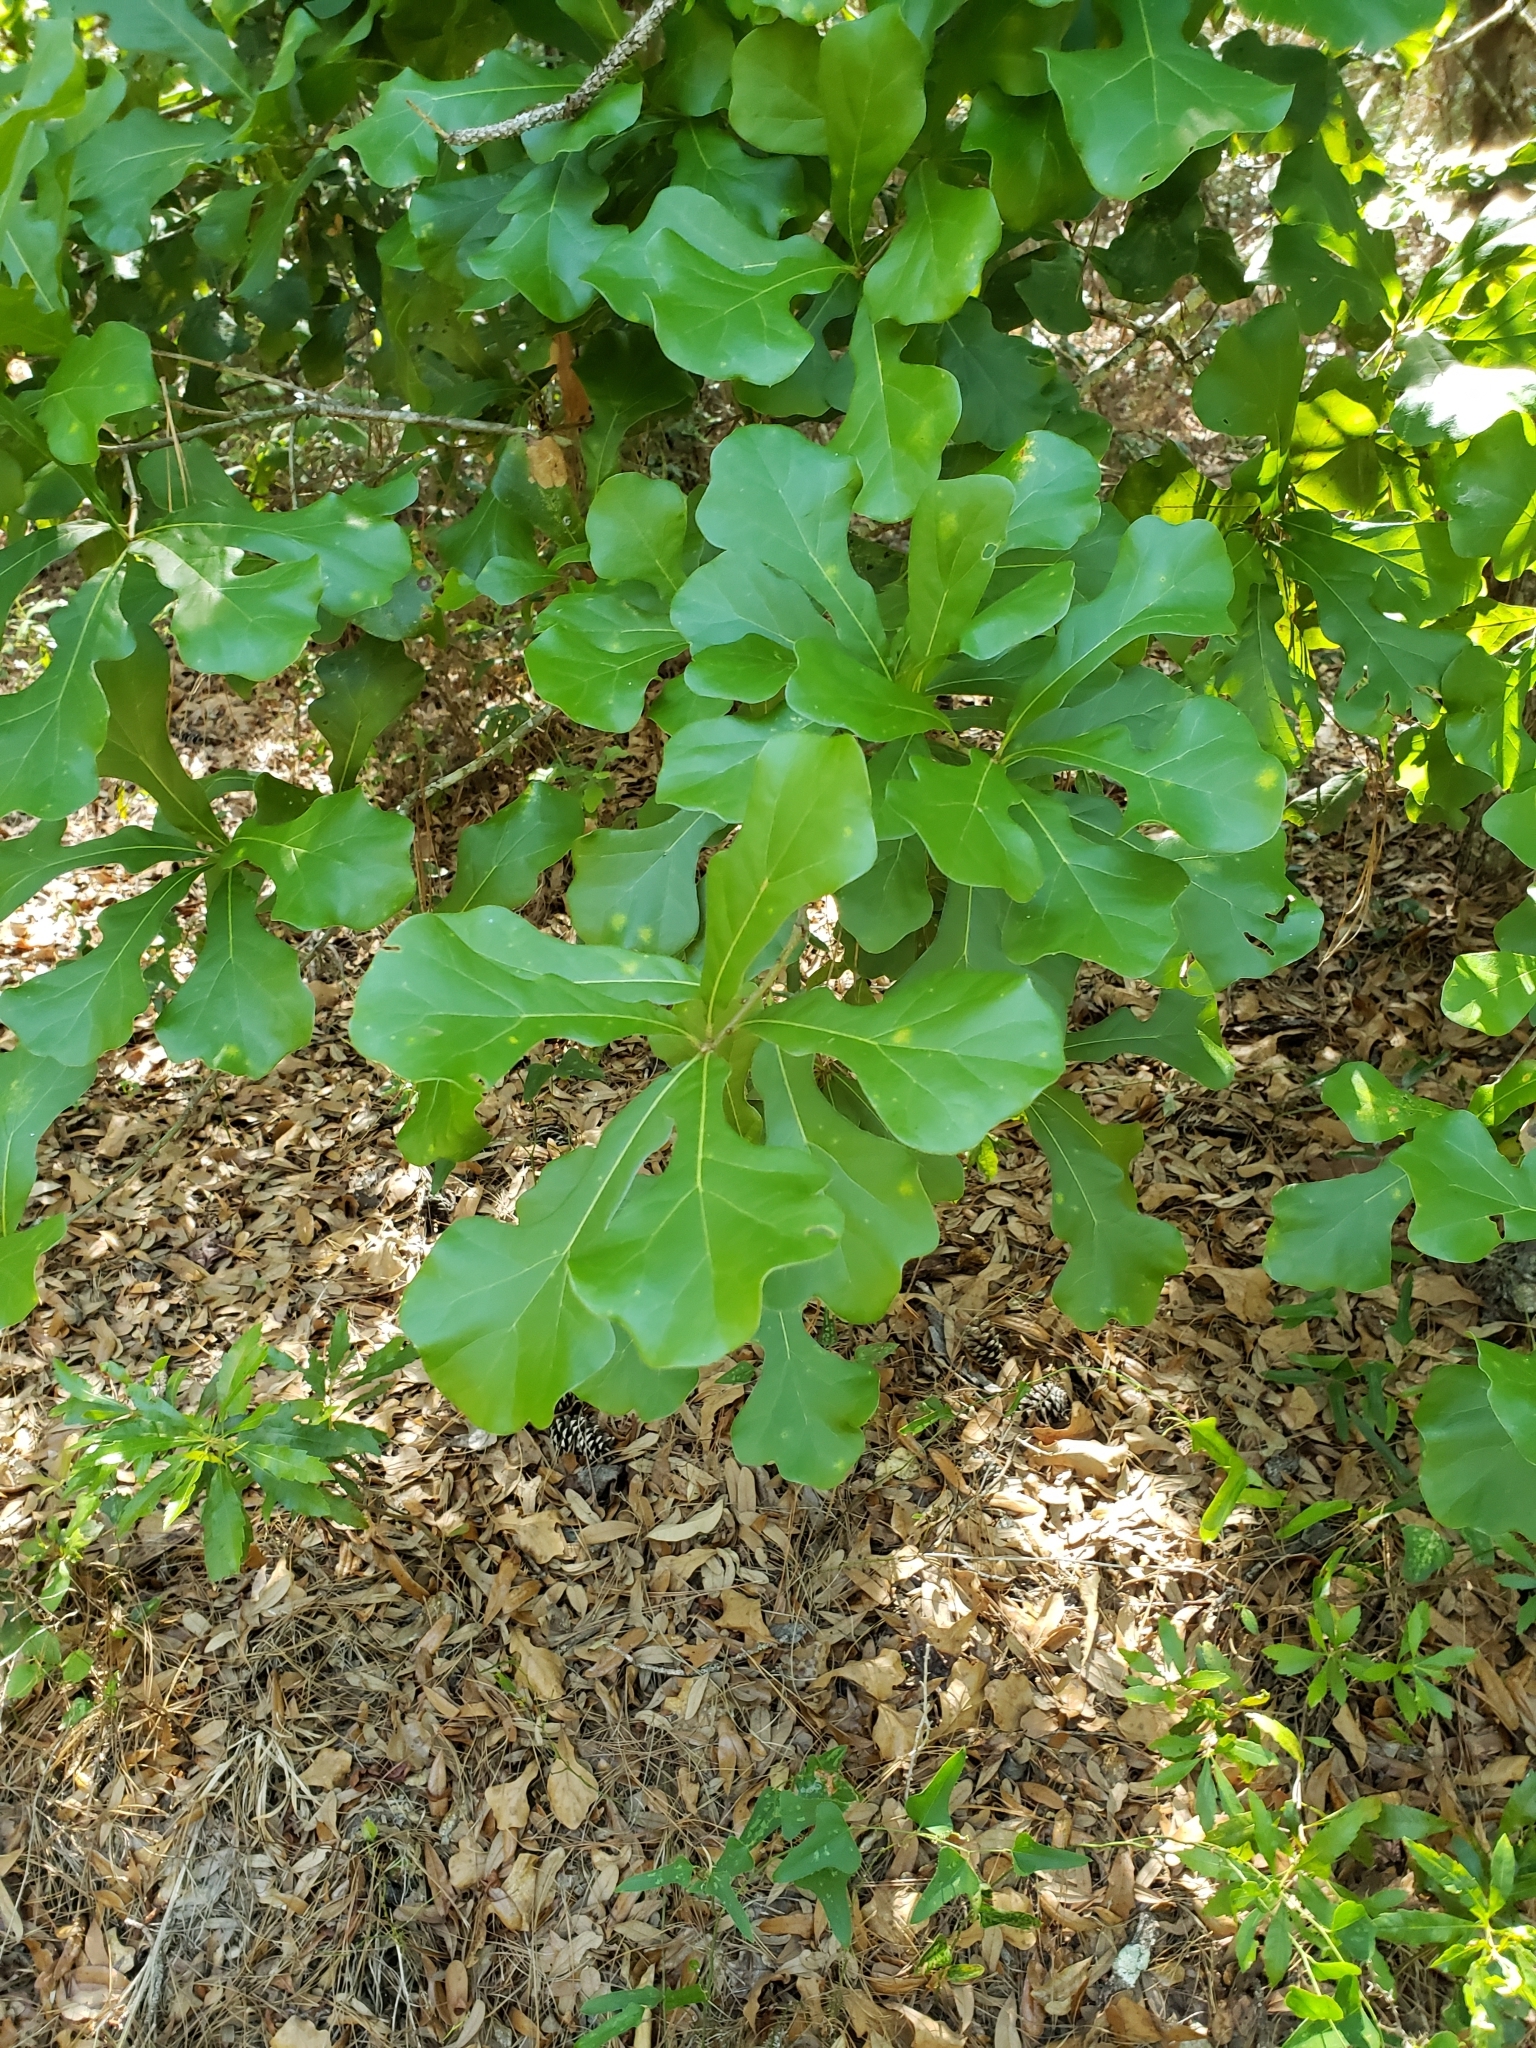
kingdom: Plantae
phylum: Tracheophyta
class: Magnoliopsida
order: Fagales
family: Fagaceae
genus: Quercus
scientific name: Quercus nigra
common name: Water oak
